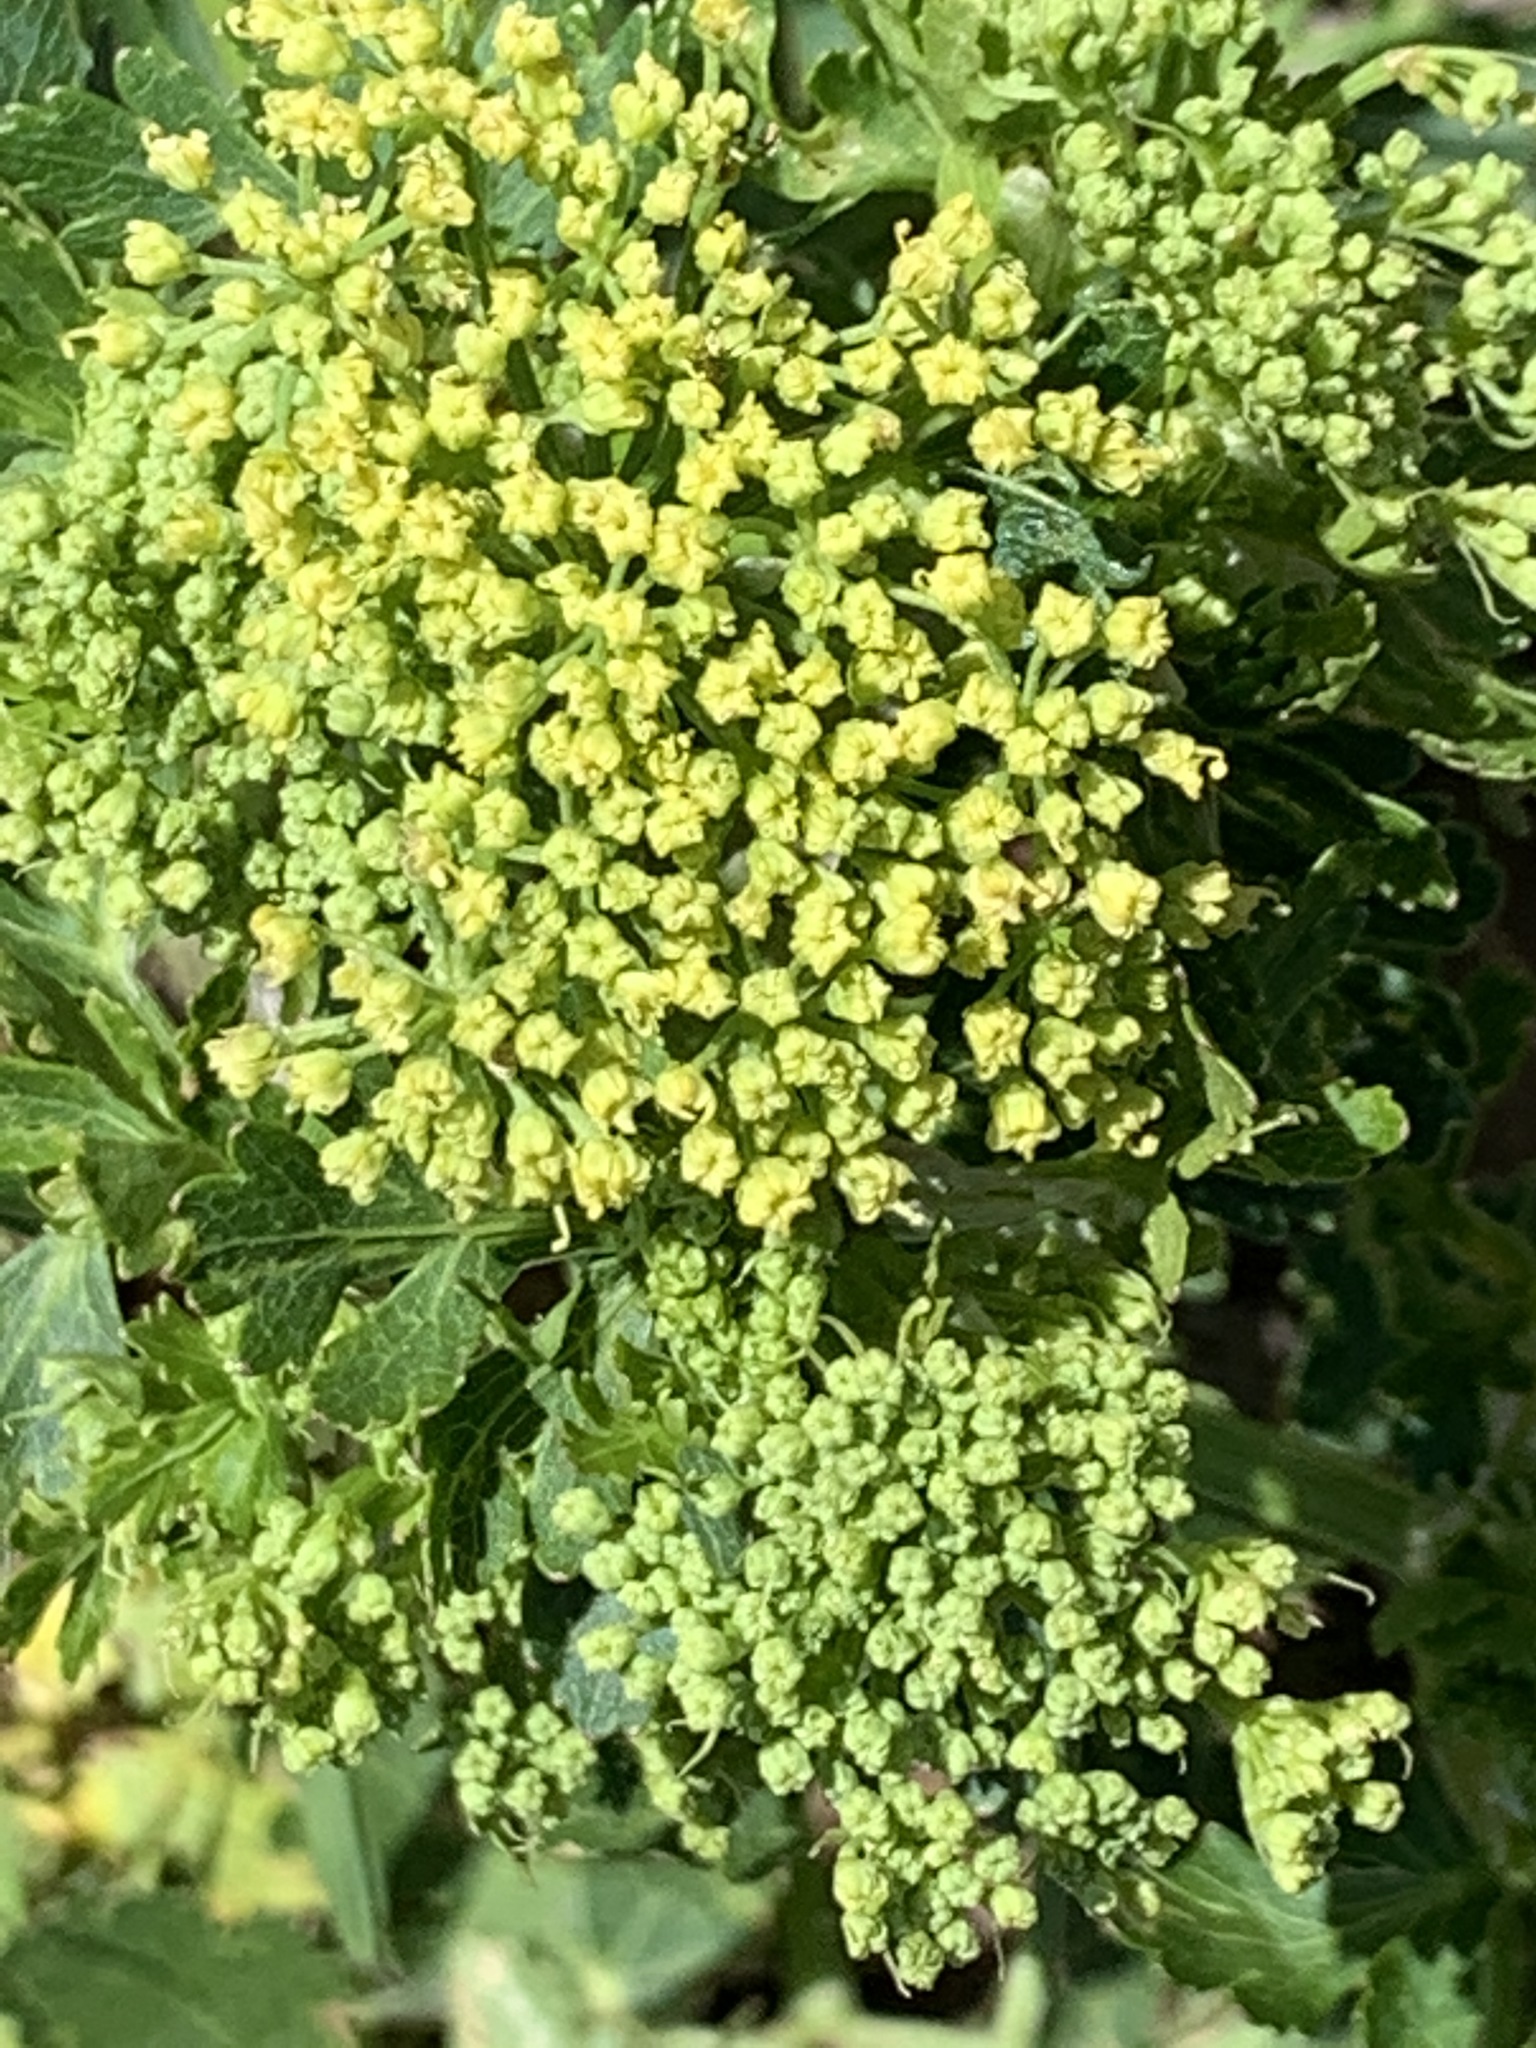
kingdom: Plantae
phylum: Tracheophyta
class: Magnoliopsida
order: Apiales
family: Apiaceae
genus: Polytaenia
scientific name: Polytaenia nuttallii
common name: Prairie-parsley
